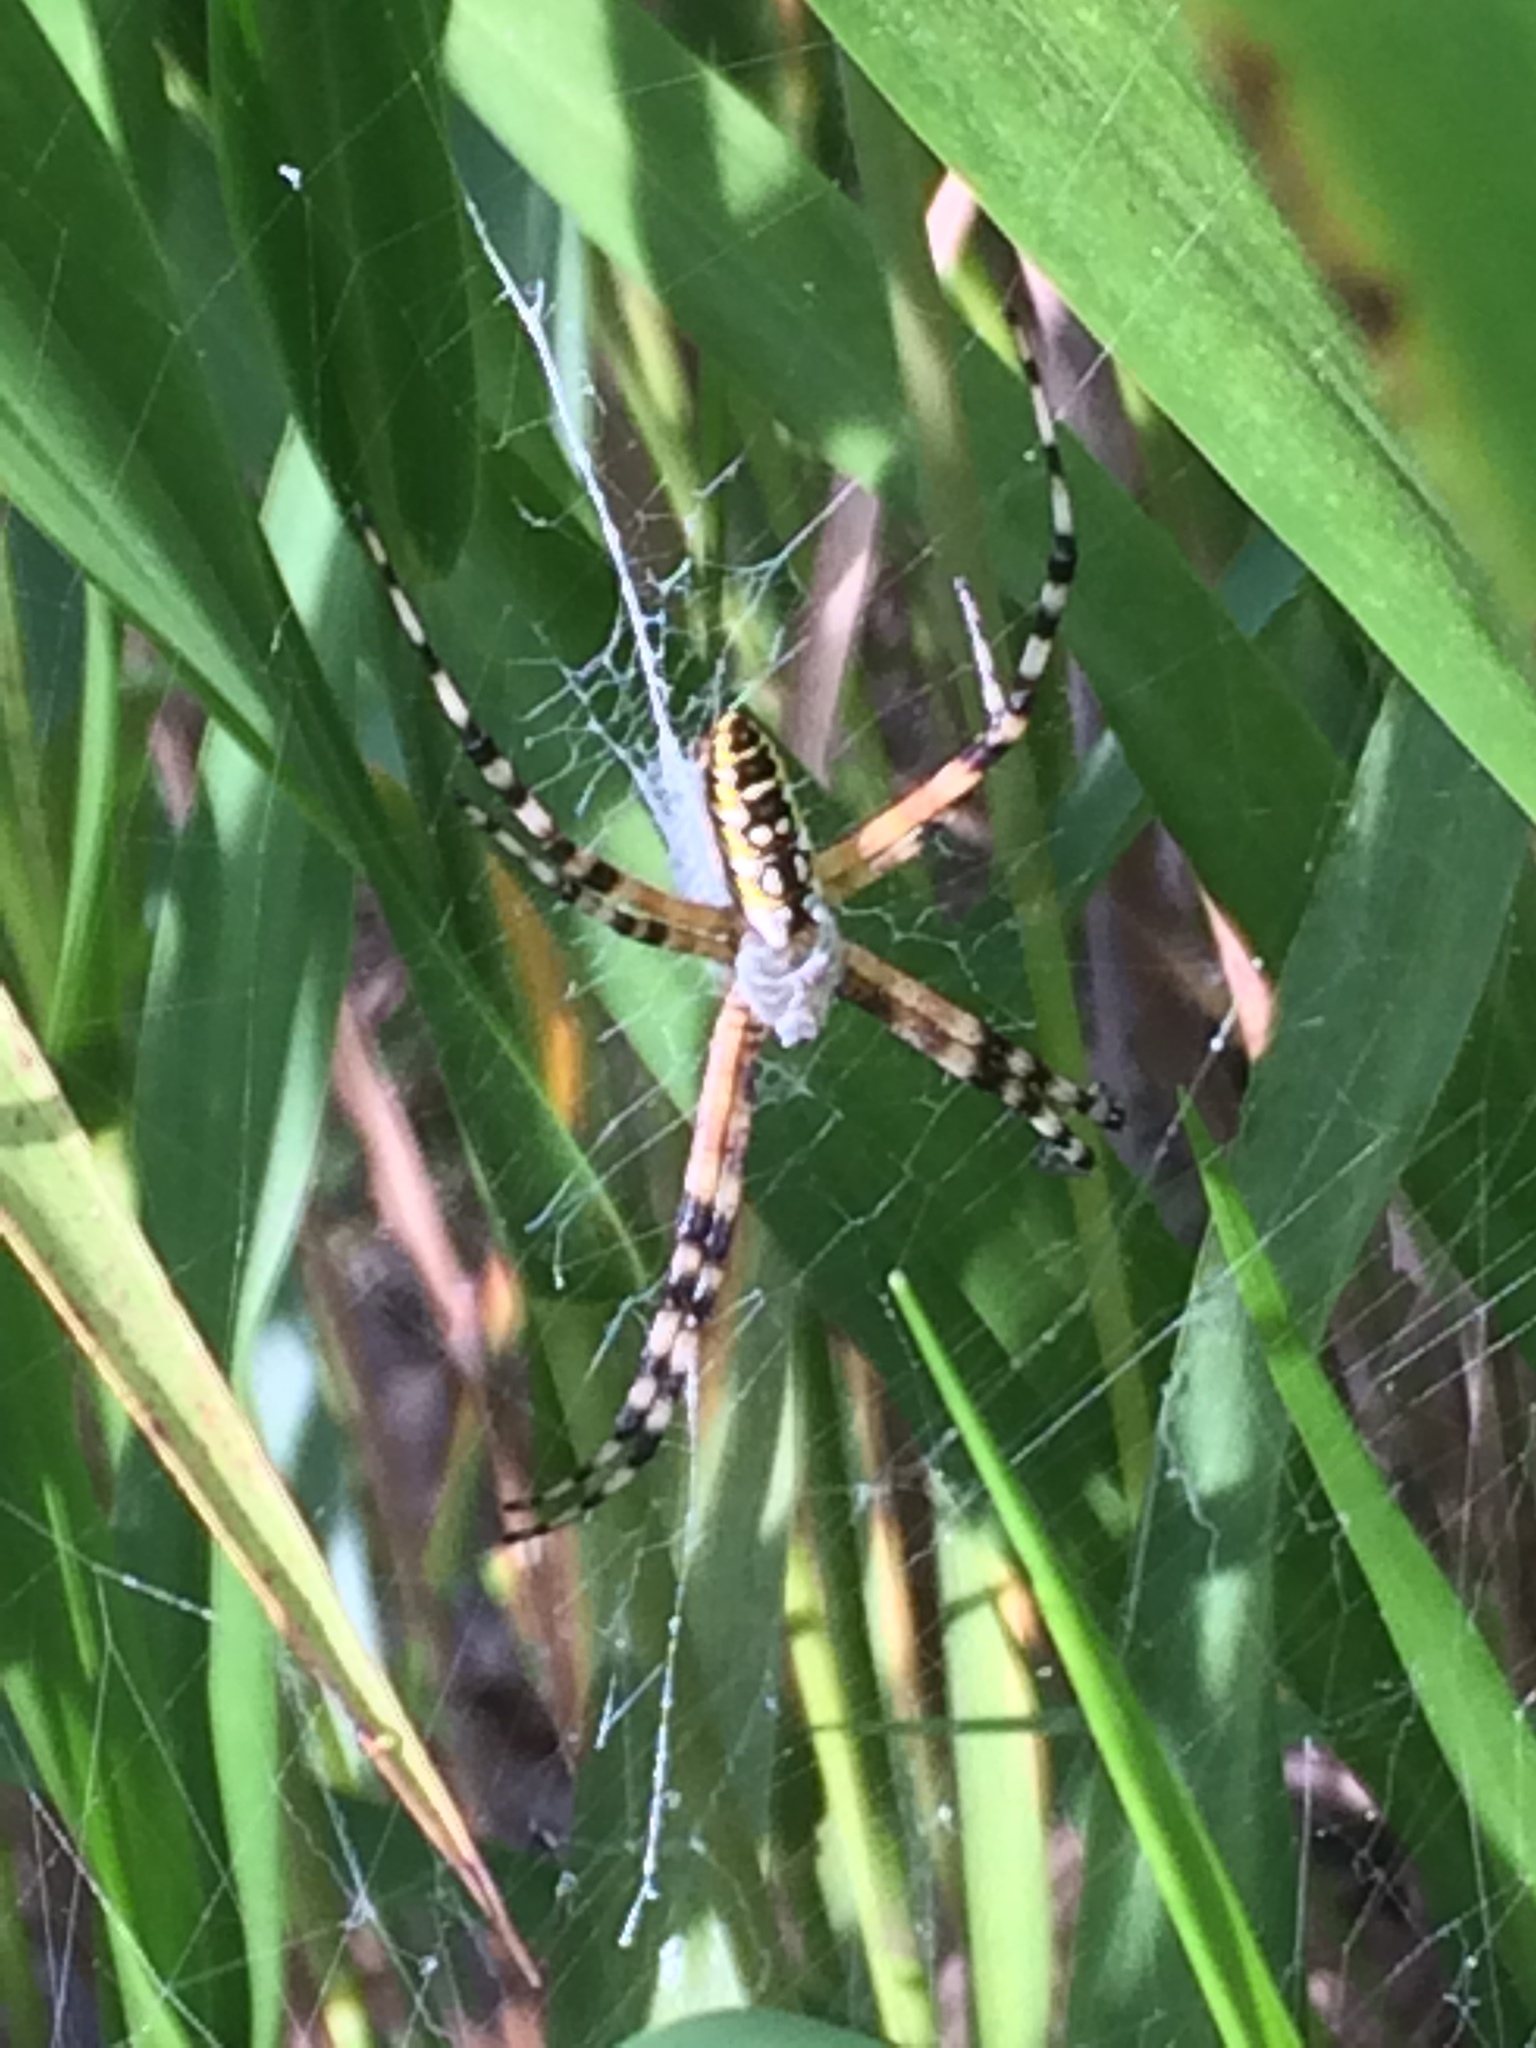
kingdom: Animalia
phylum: Arthropoda
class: Arachnida
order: Araneae
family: Araneidae
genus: Argiope
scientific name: Argiope aurantia
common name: Orb weavers
